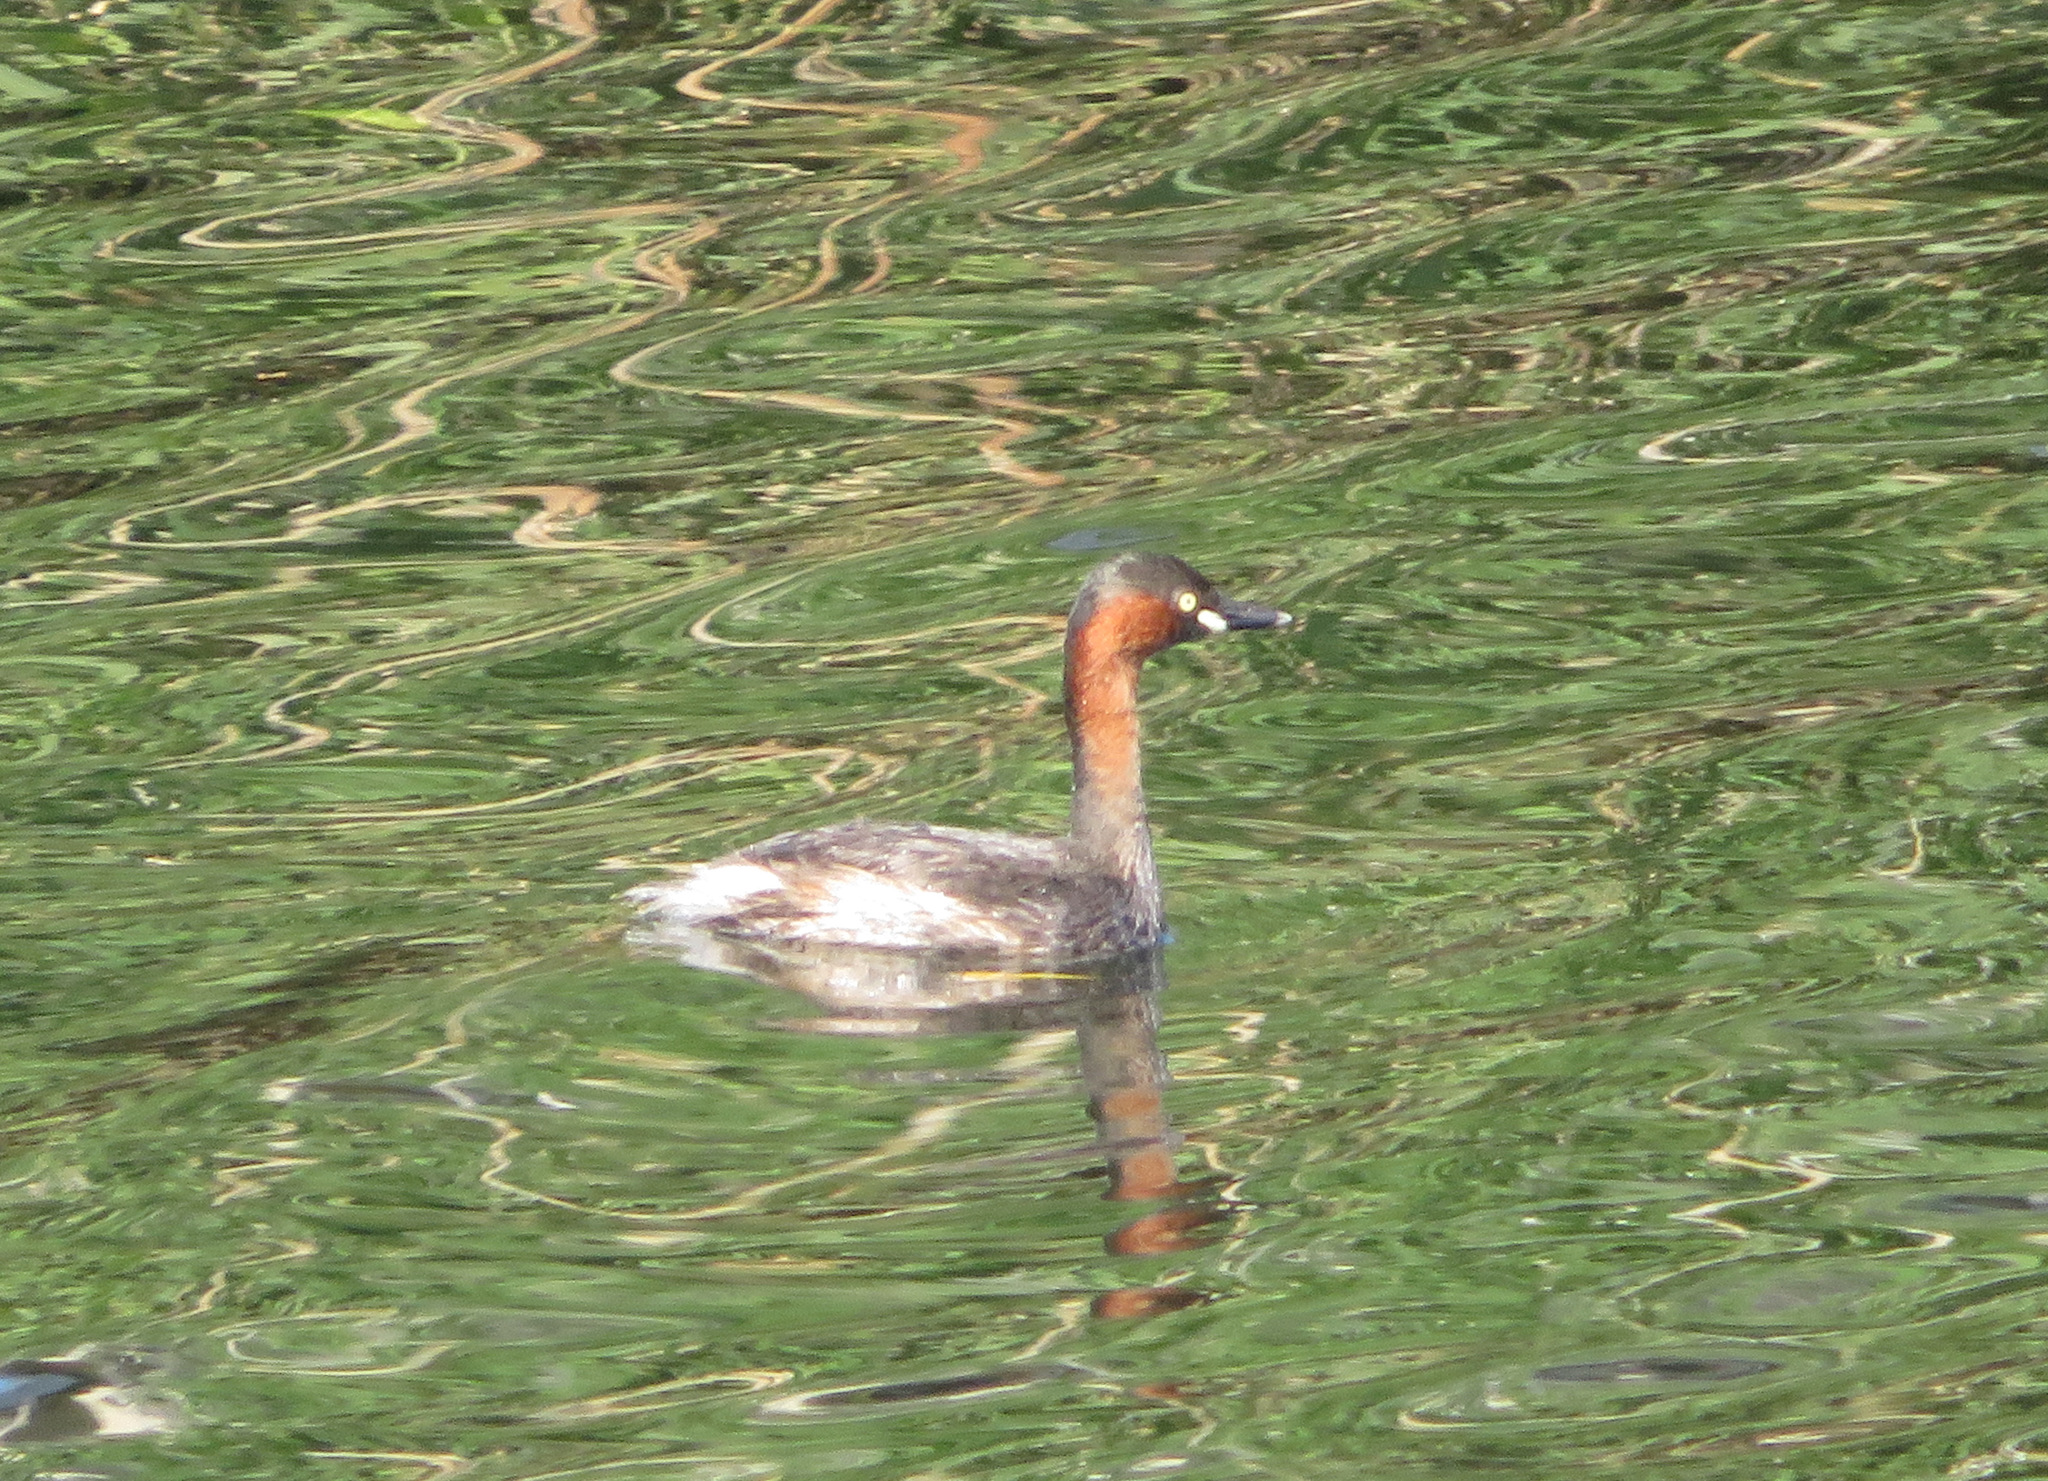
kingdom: Animalia
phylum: Chordata
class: Aves
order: Podicipediformes
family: Podicipedidae
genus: Tachybaptus
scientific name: Tachybaptus ruficollis
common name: Little grebe
